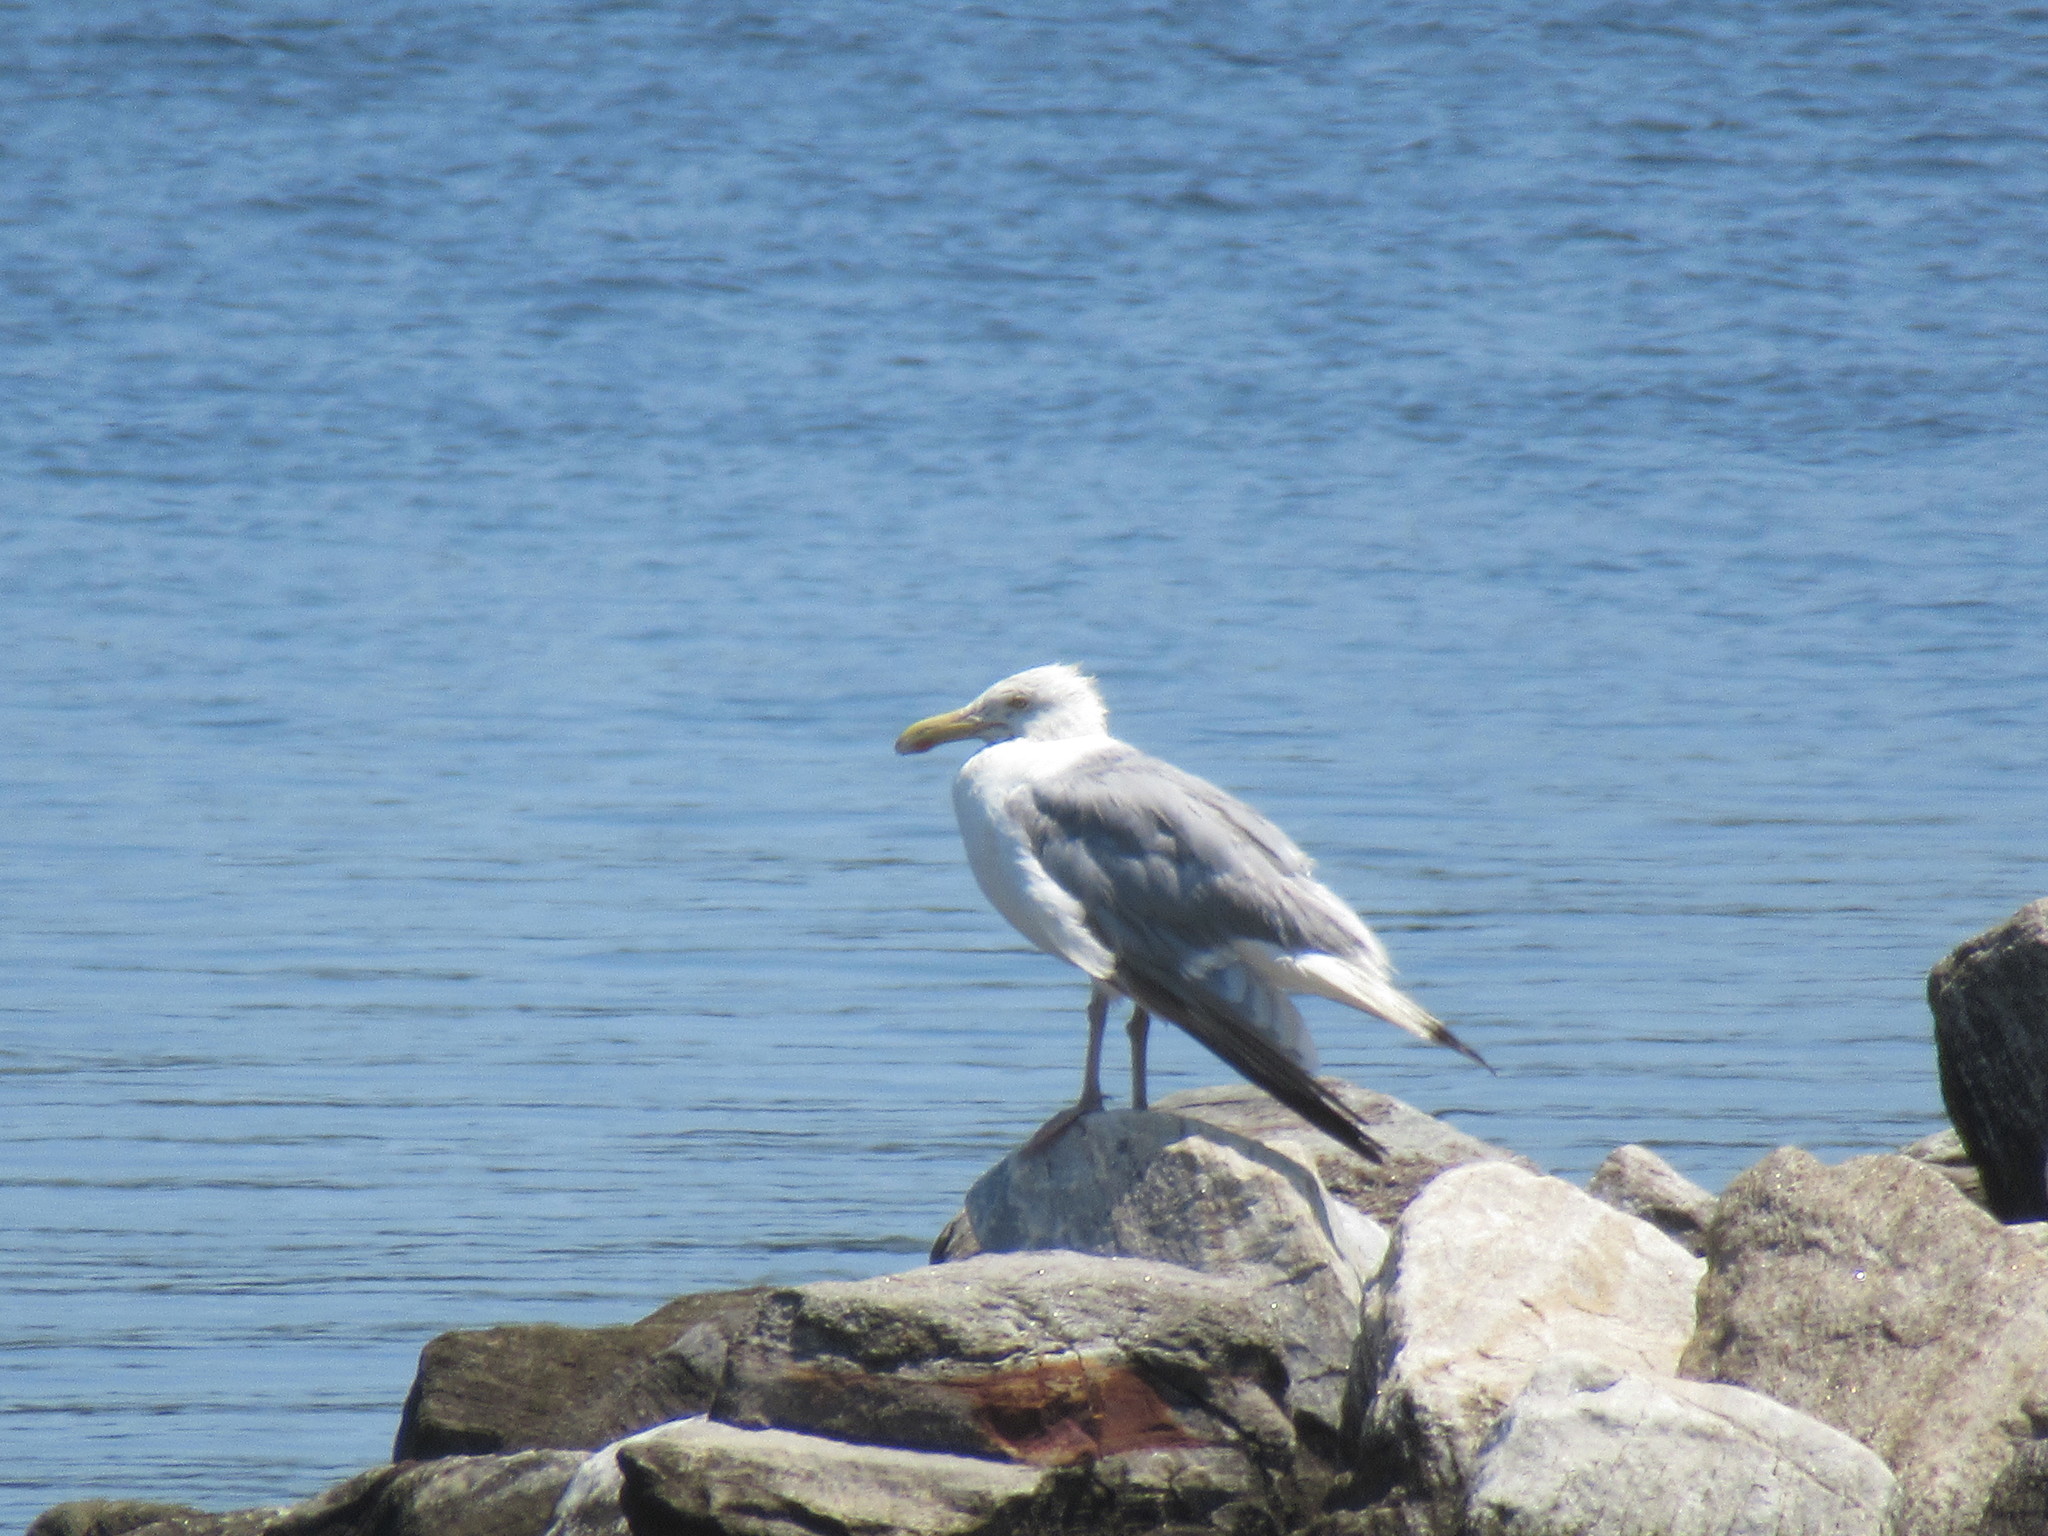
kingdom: Animalia
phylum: Chordata
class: Aves
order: Charadriiformes
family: Laridae
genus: Larus
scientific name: Larus argentatus
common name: Herring gull
